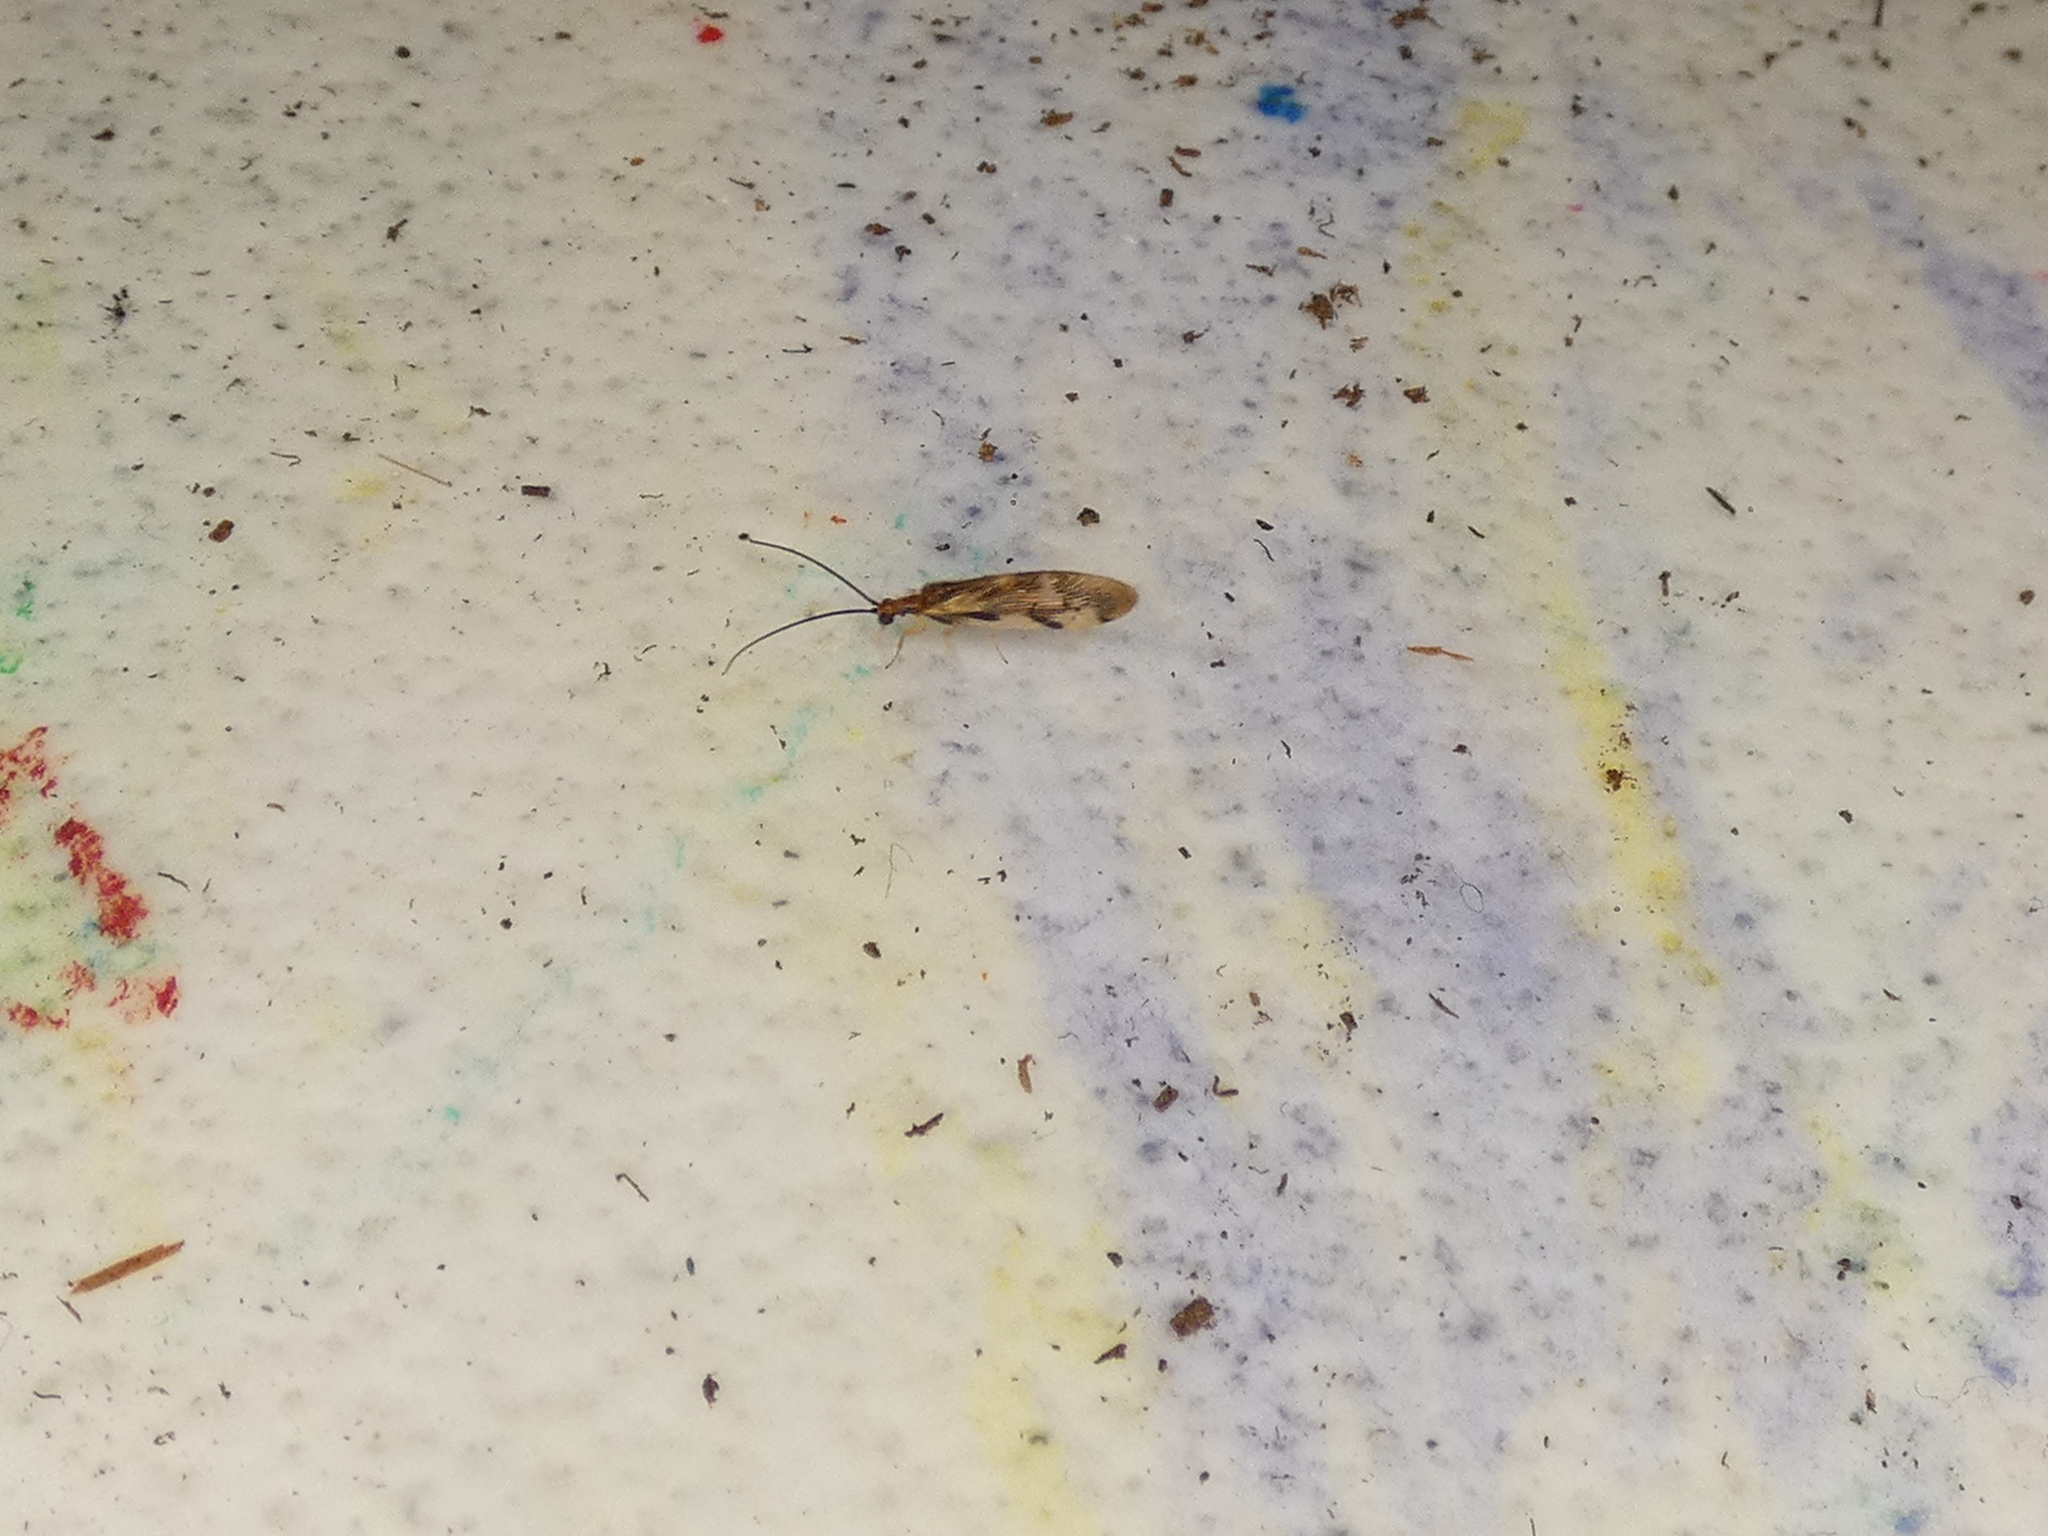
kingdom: Animalia
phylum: Arthropoda
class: Insecta
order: Neuroptera
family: Sisyridae
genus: Climacia
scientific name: Climacia areolaris
